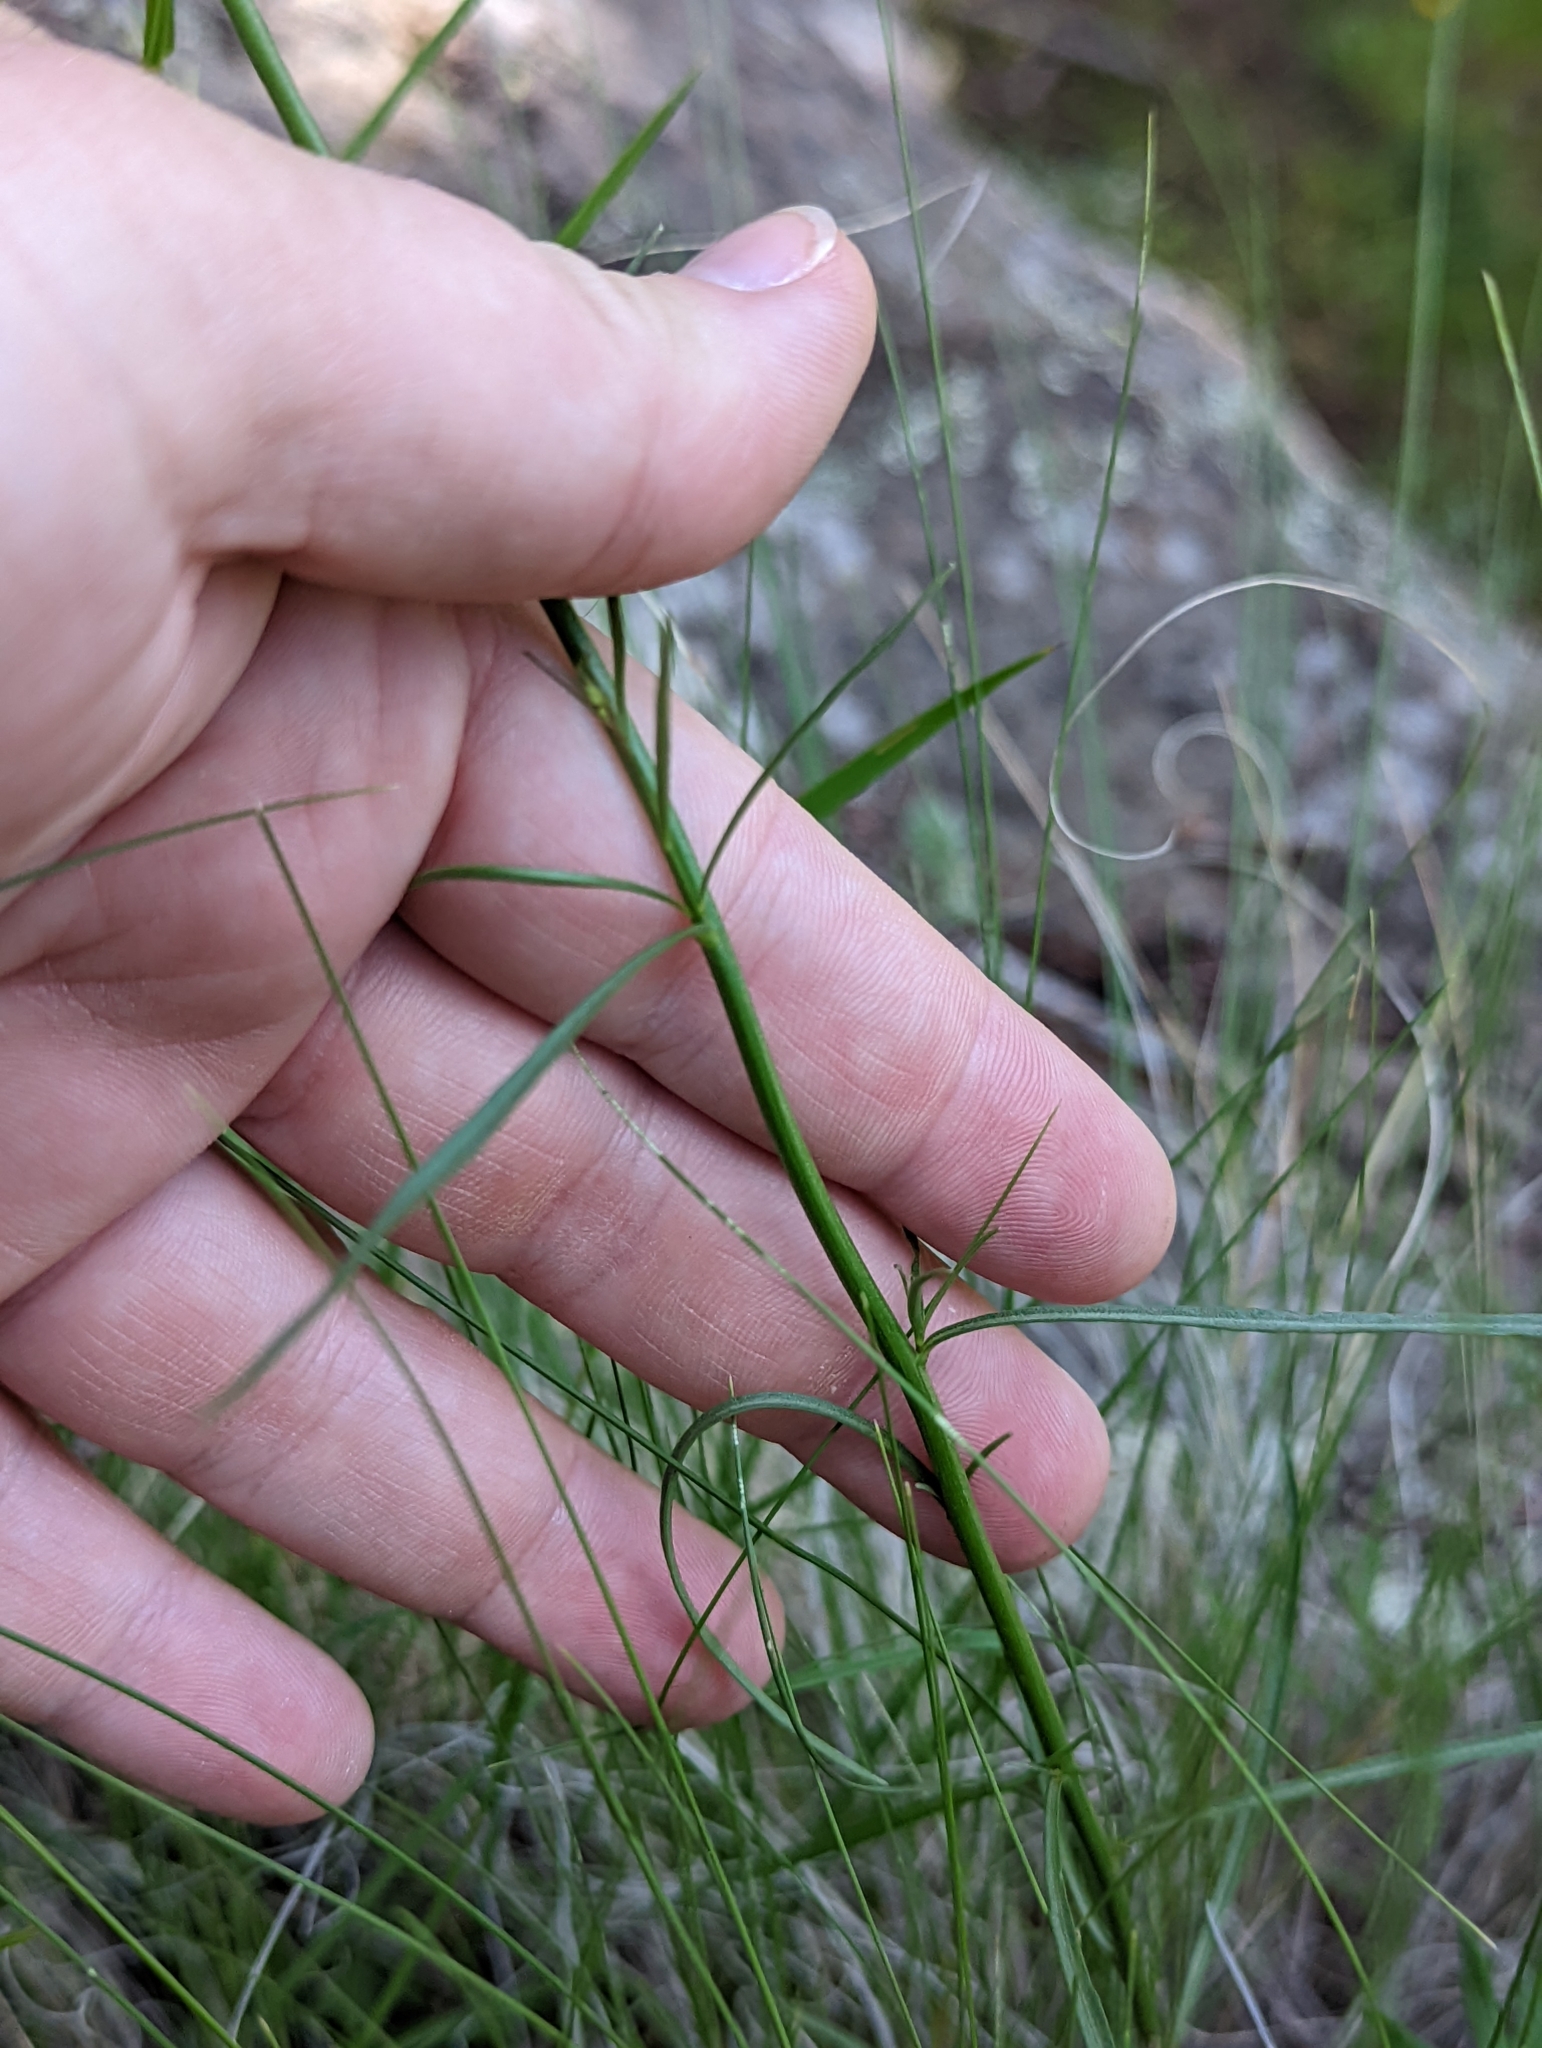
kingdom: Plantae
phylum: Tracheophyta
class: Magnoliopsida
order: Asterales
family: Campanulaceae
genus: Campanula
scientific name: Campanula petiolata
